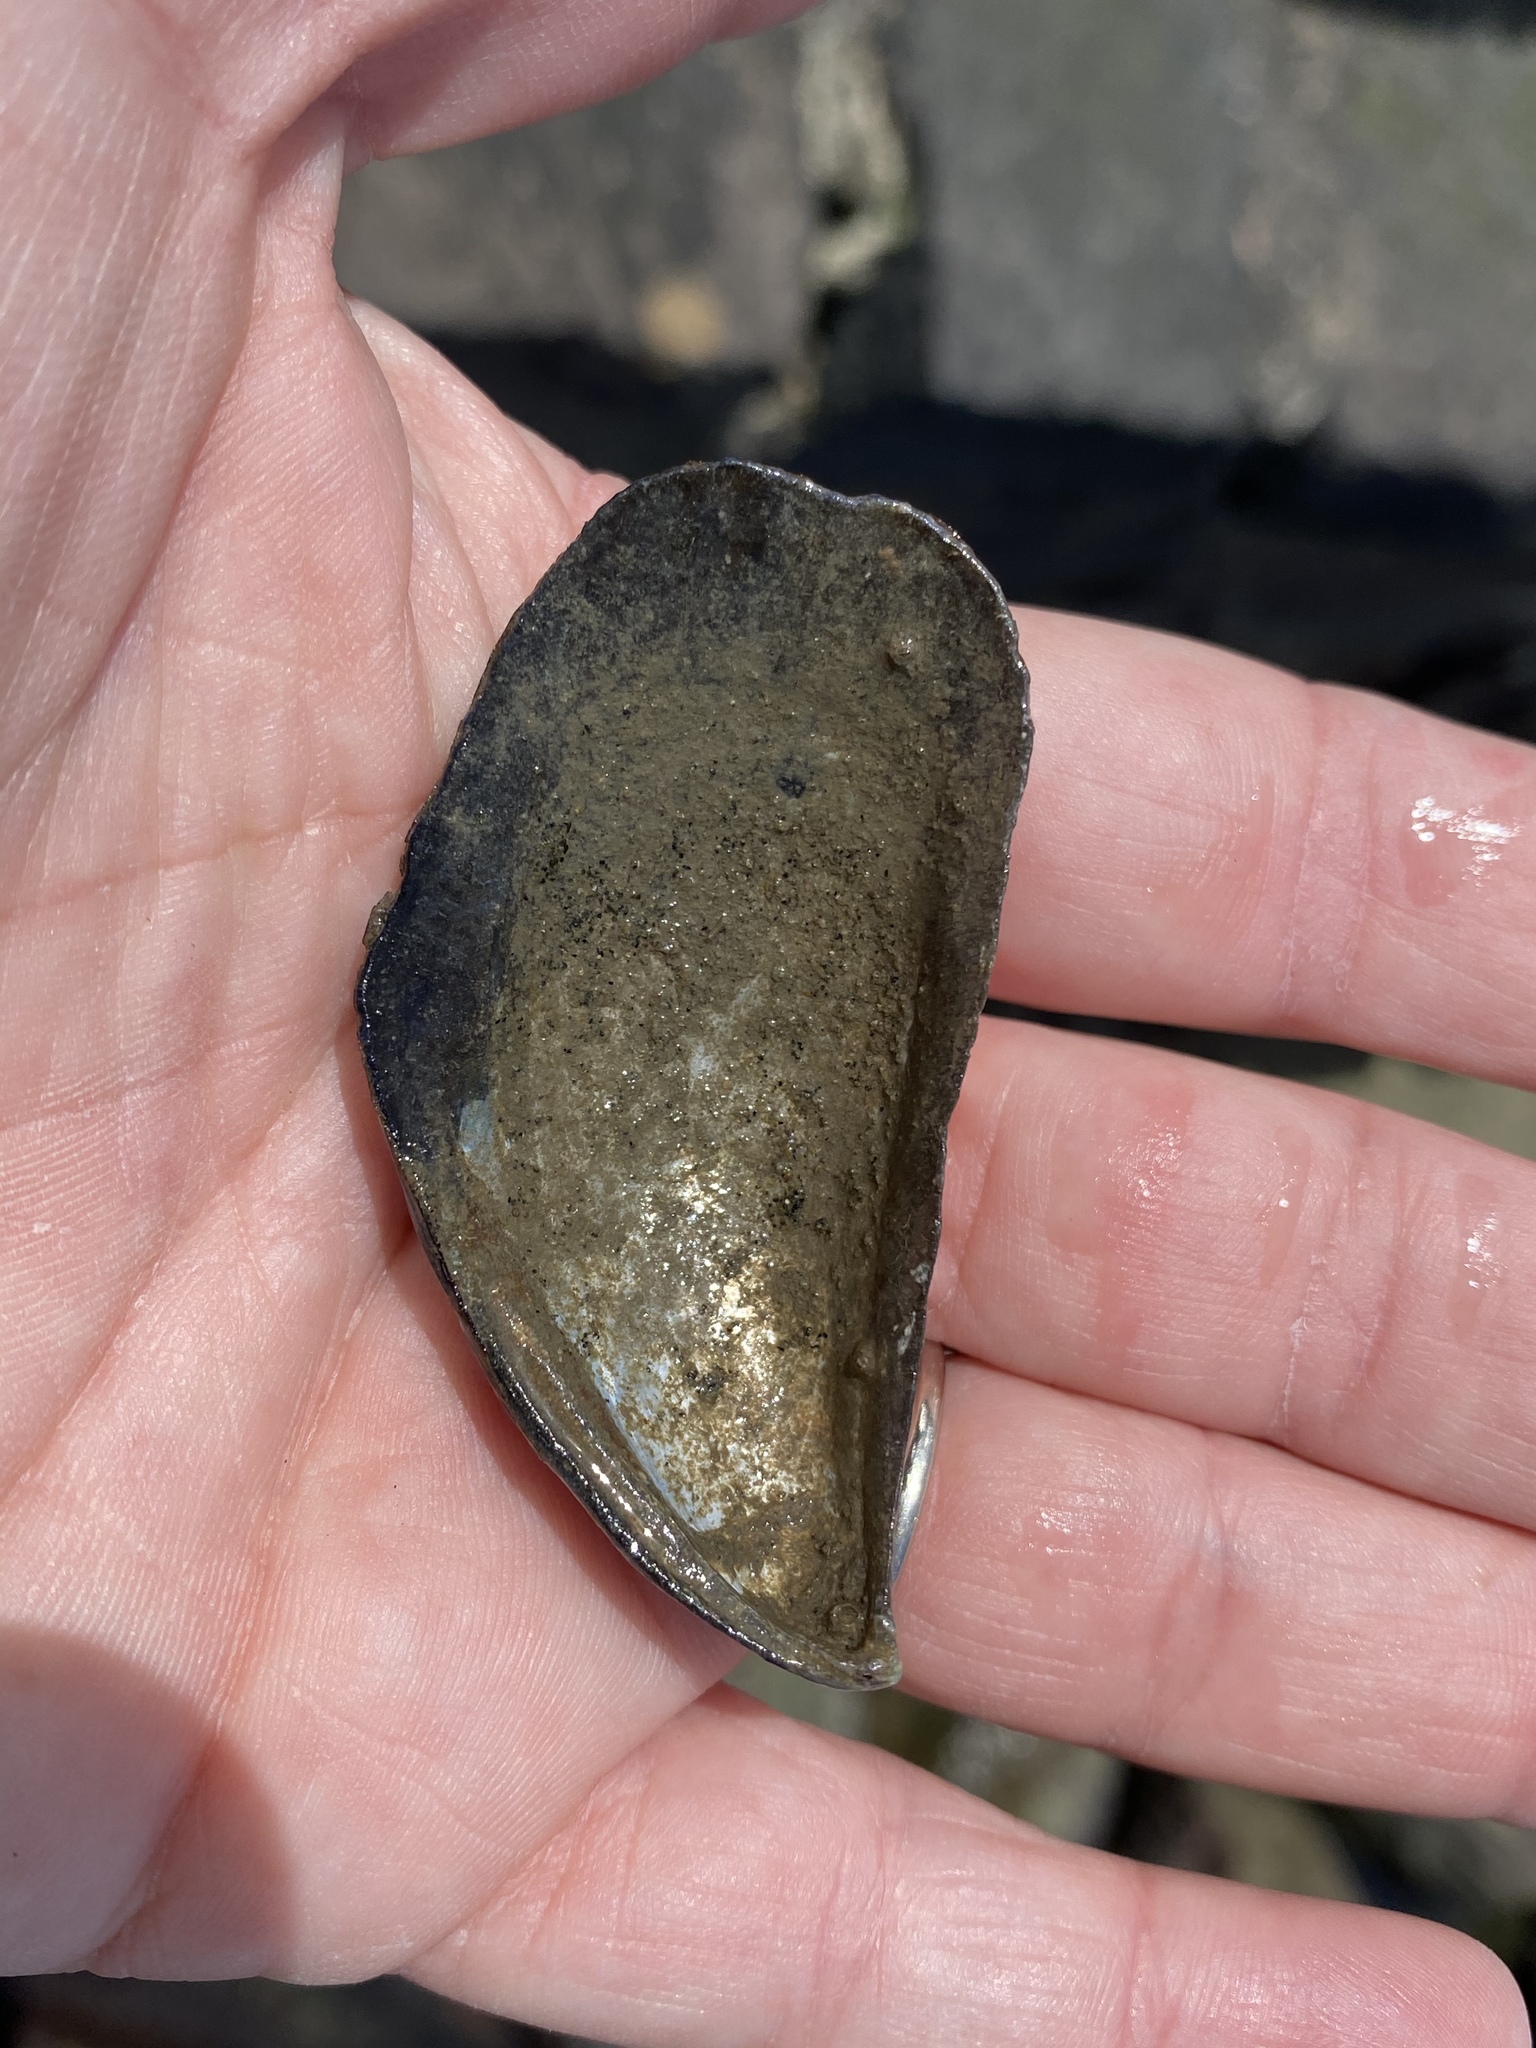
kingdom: Animalia
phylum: Mollusca
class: Bivalvia
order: Mytilida
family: Mytilidae
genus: Mytilus
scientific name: Mytilus californianus
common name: California mussel
